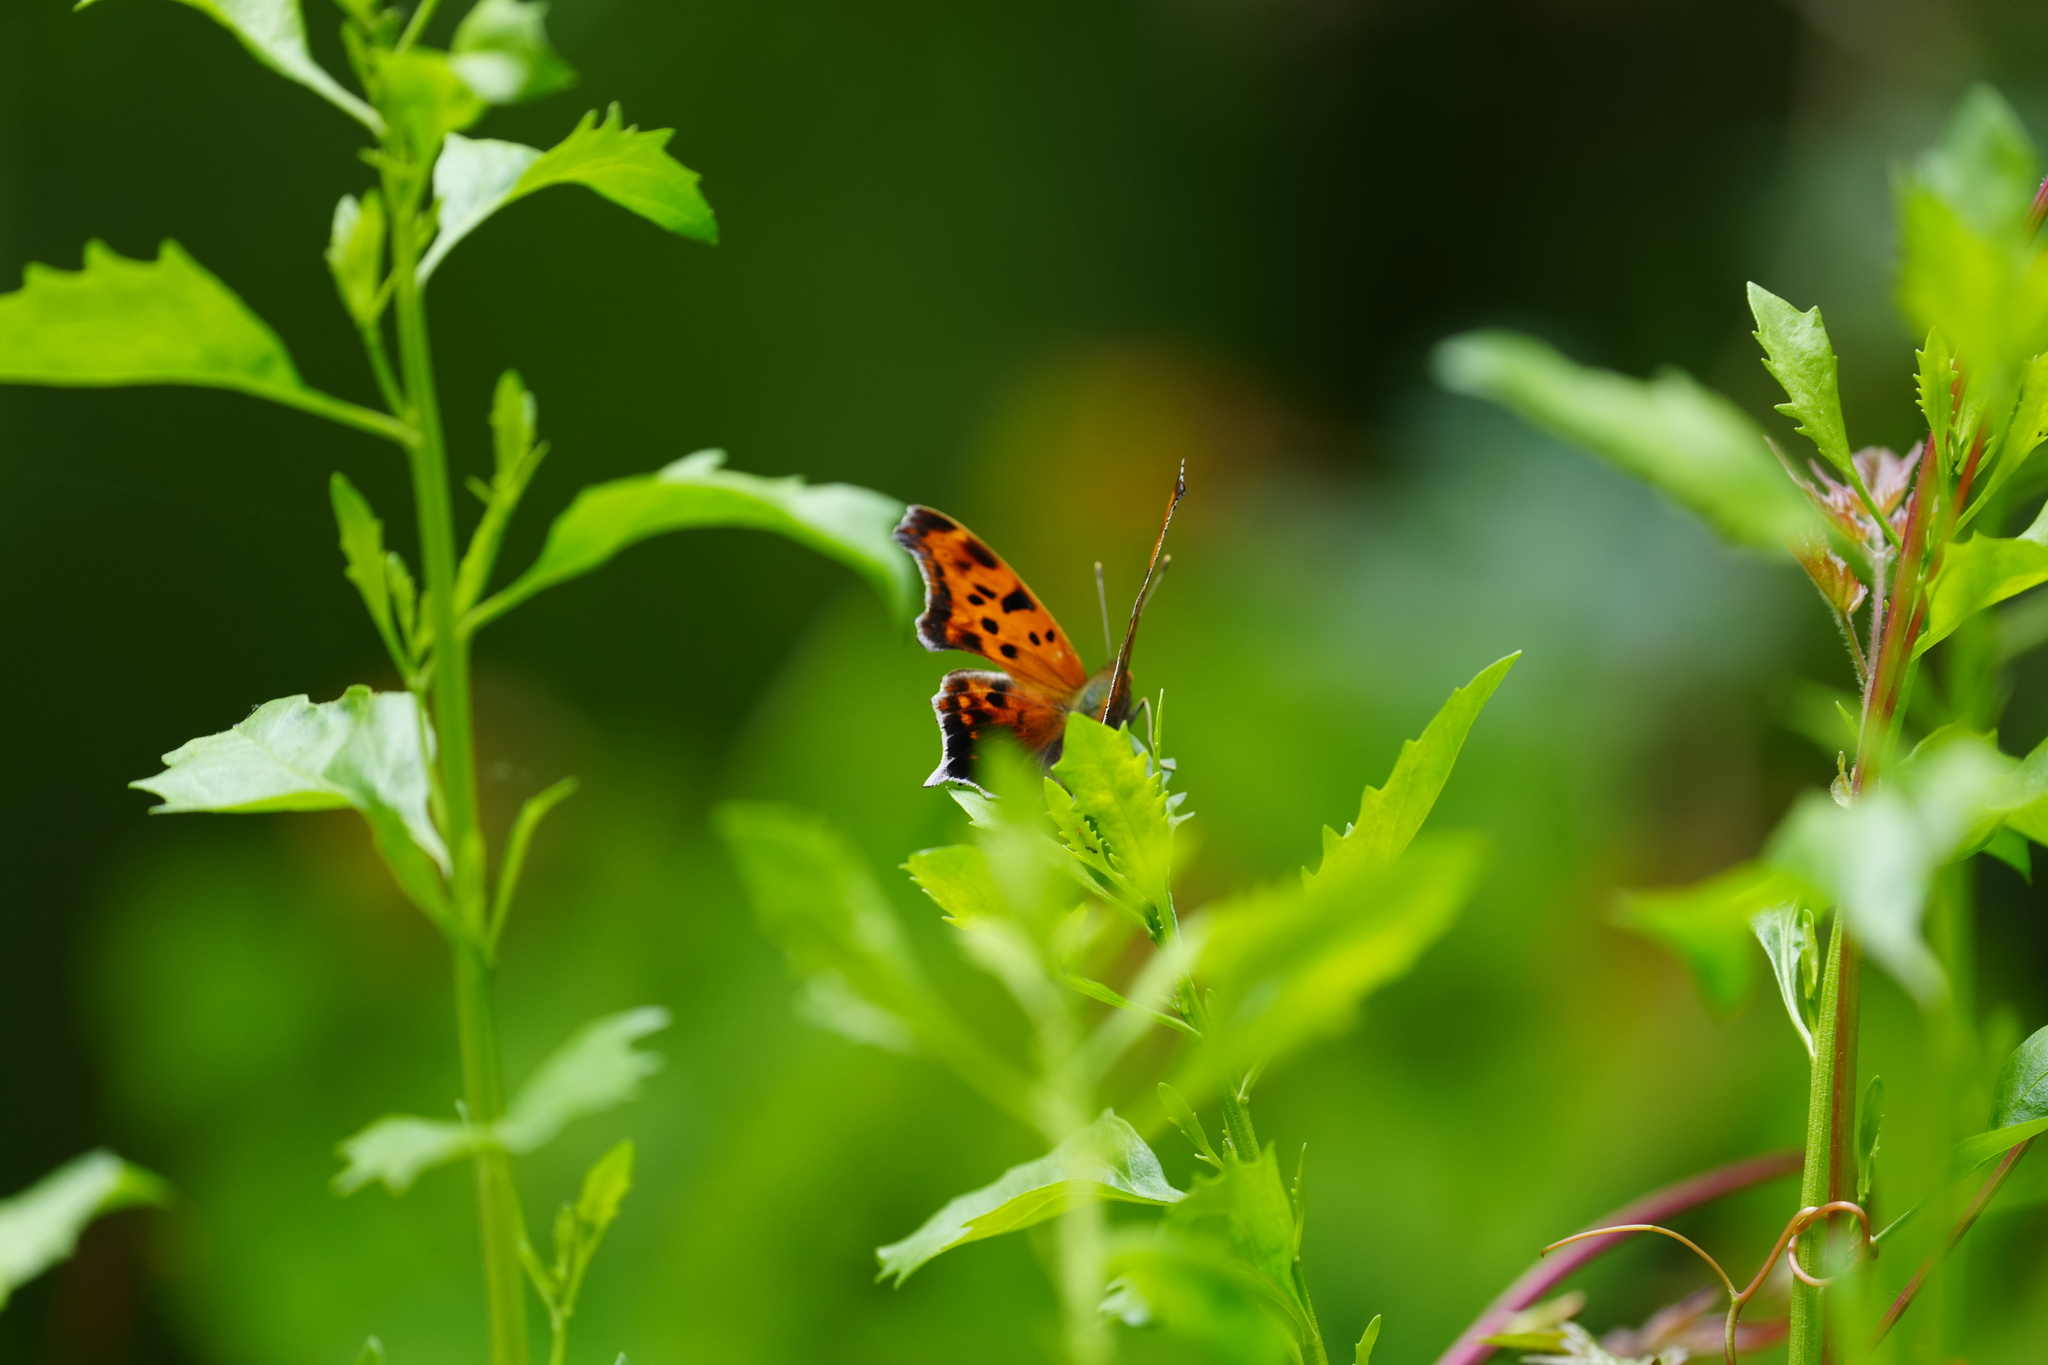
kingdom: Animalia
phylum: Arthropoda
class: Insecta
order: Lepidoptera
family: Nymphalidae
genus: Polygonia
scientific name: Polygonia interrogationis
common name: Question mark
